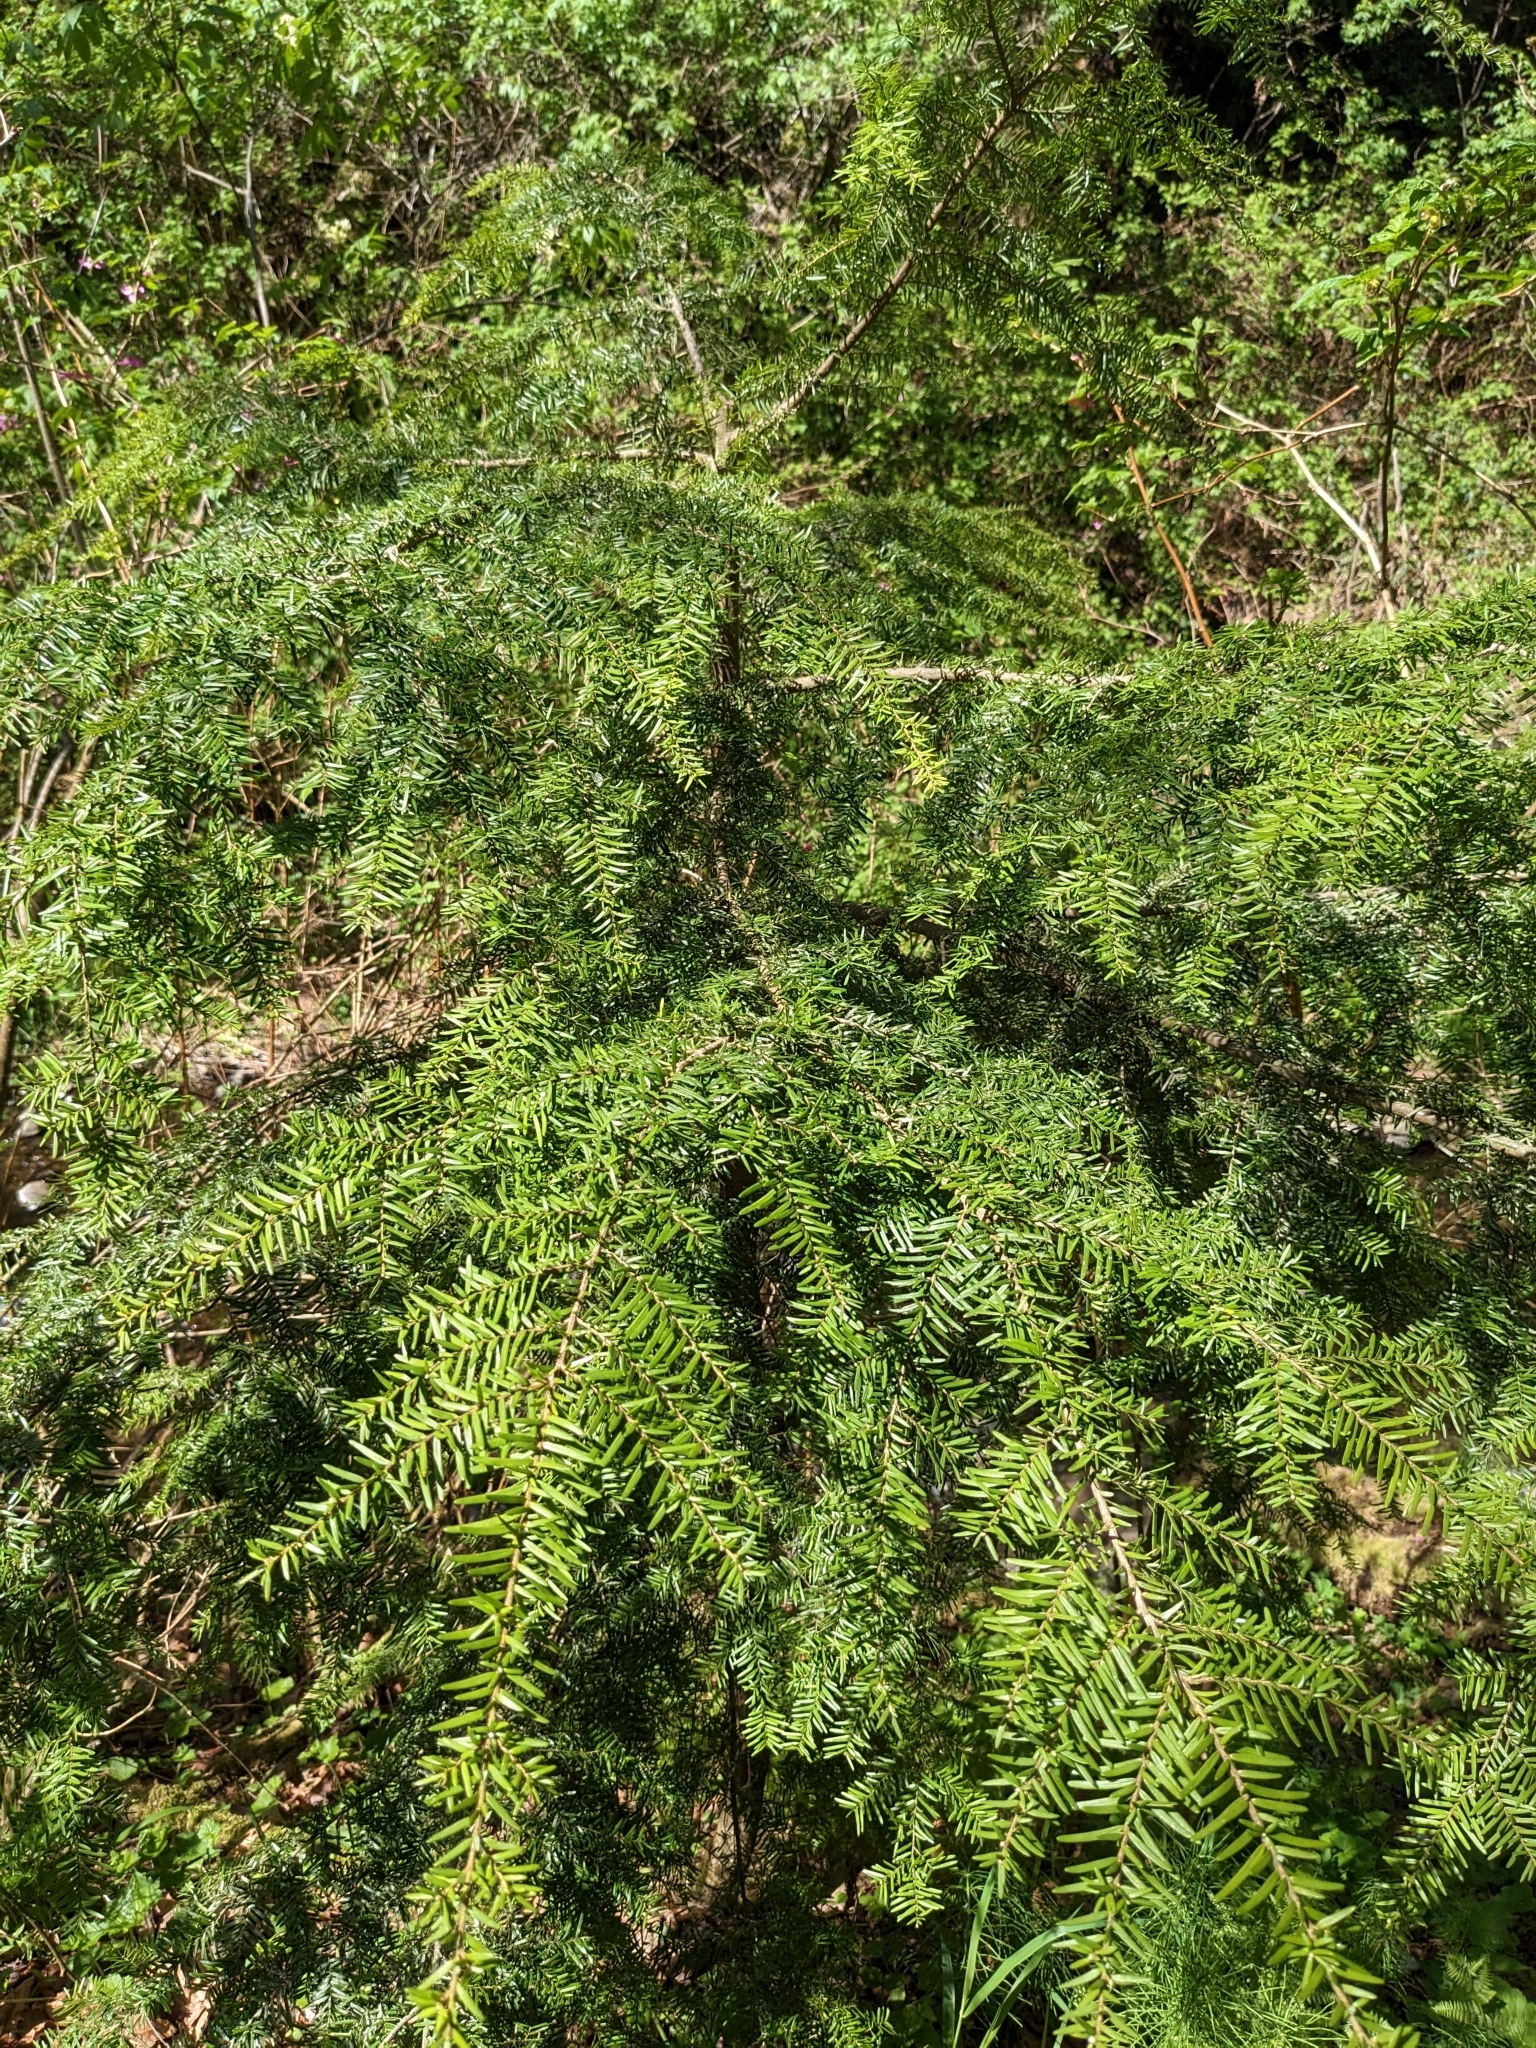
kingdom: Plantae
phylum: Tracheophyta
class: Pinopsida
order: Pinales
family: Pinaceae
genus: Tsuga
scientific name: Tsuga heterophylla
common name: Western hemlock
